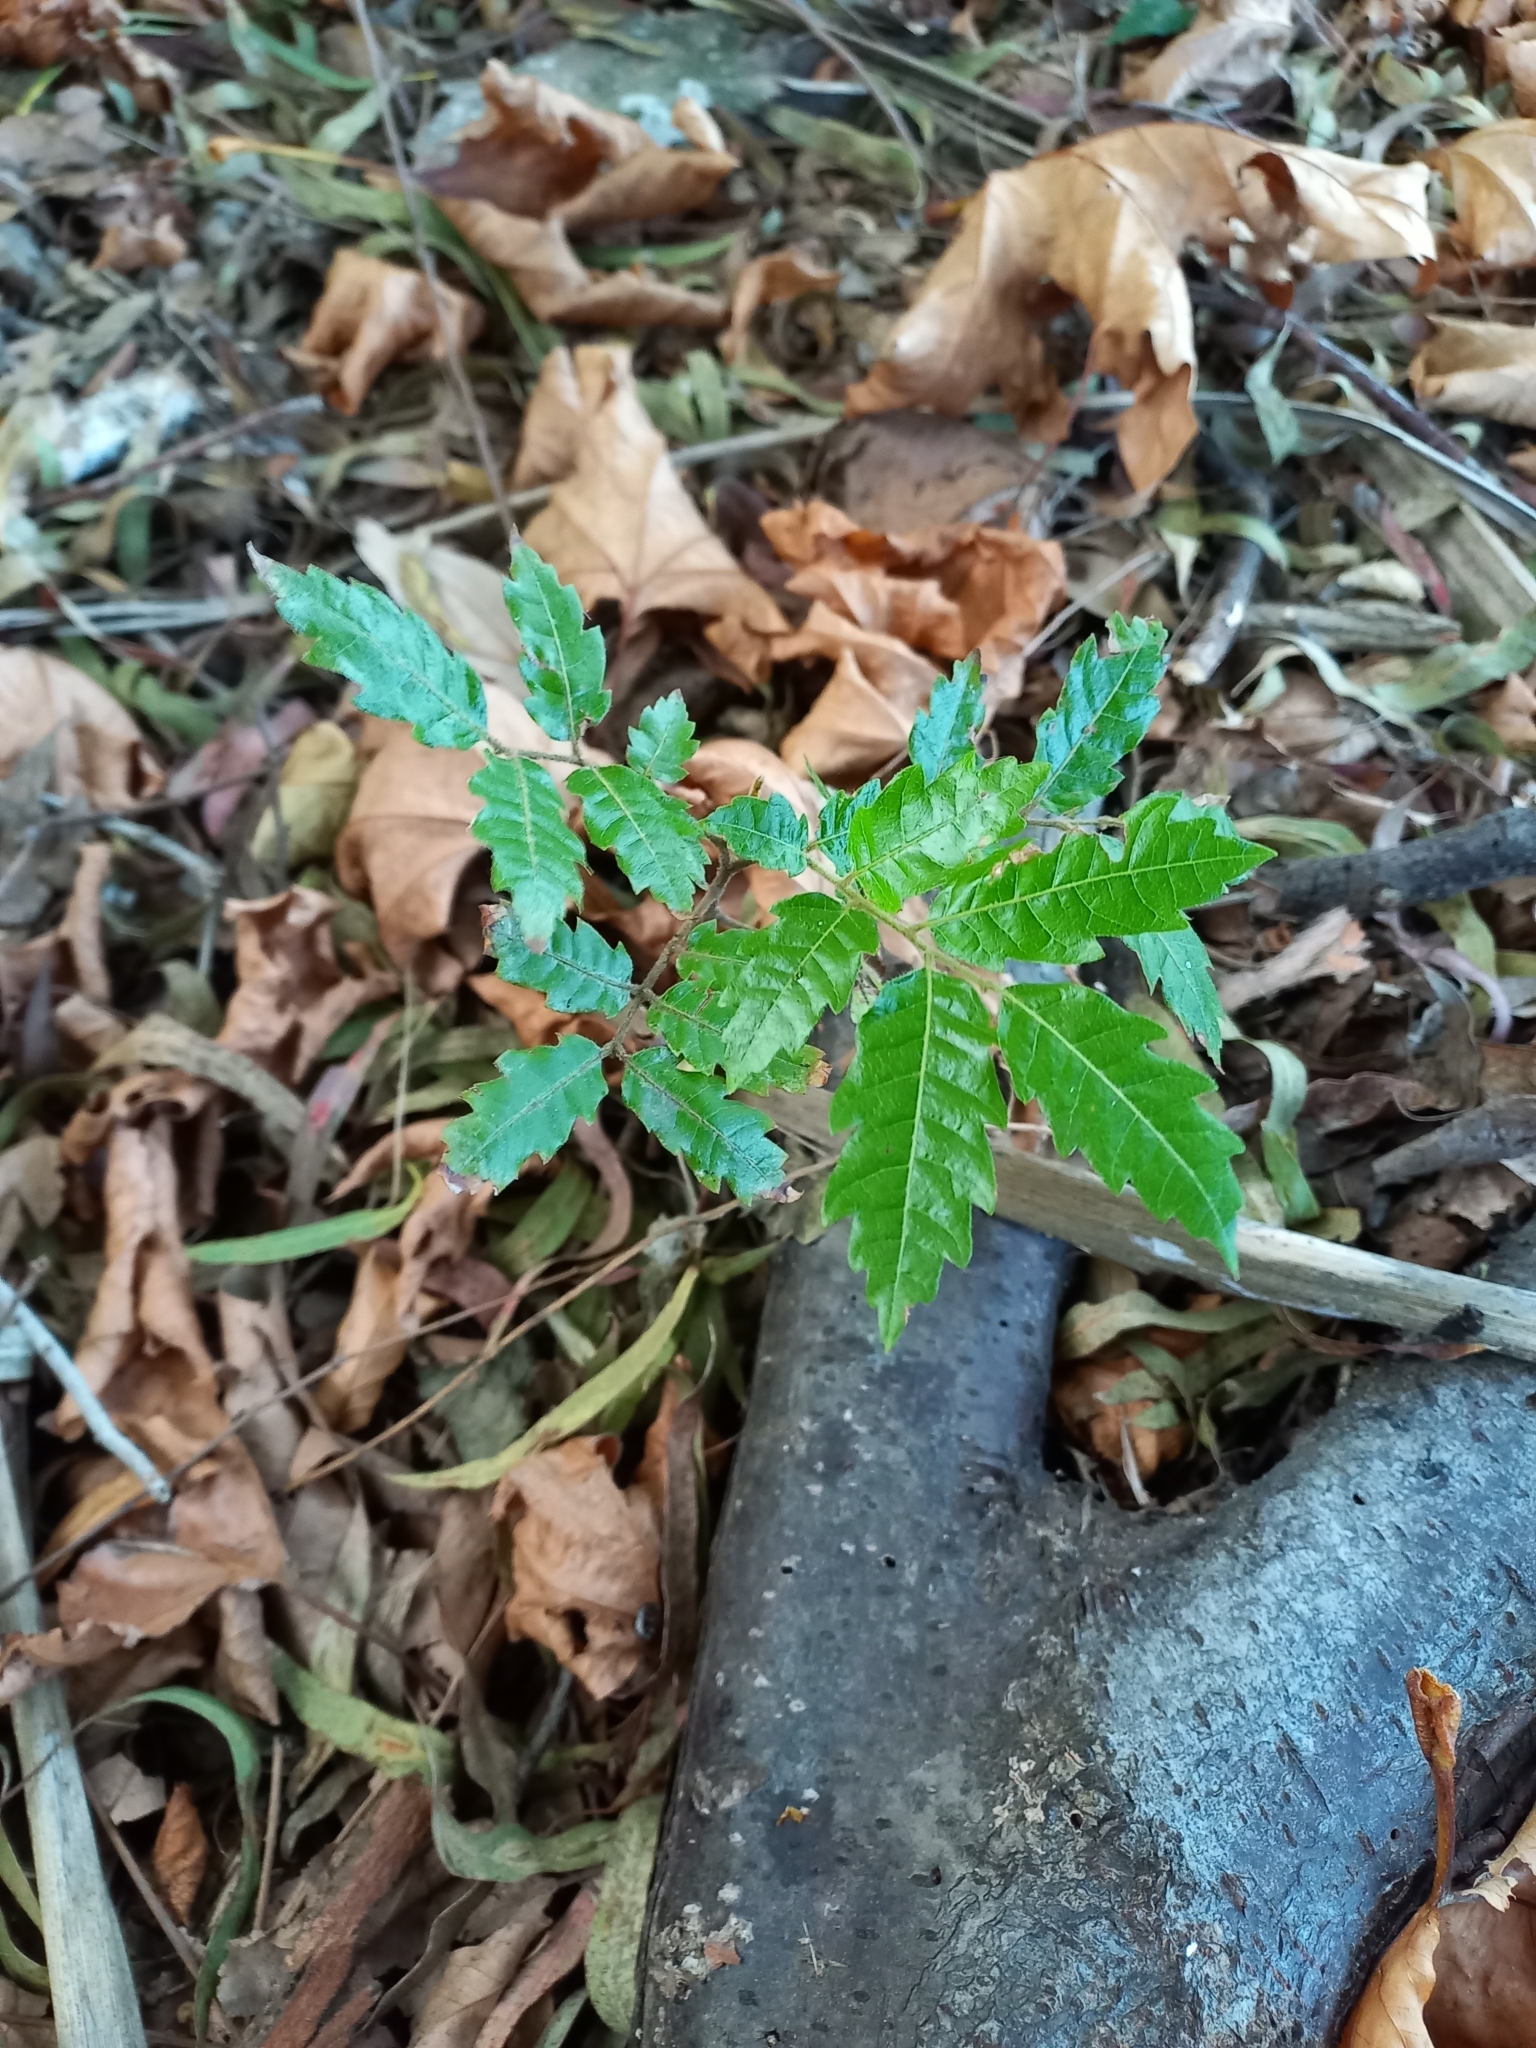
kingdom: Plantae
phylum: Tracheophyta
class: Magnoliopsida
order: Sapindales
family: Sapindaceae
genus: Alectryon
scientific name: Alectryon excelsus
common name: Three kings titoki
